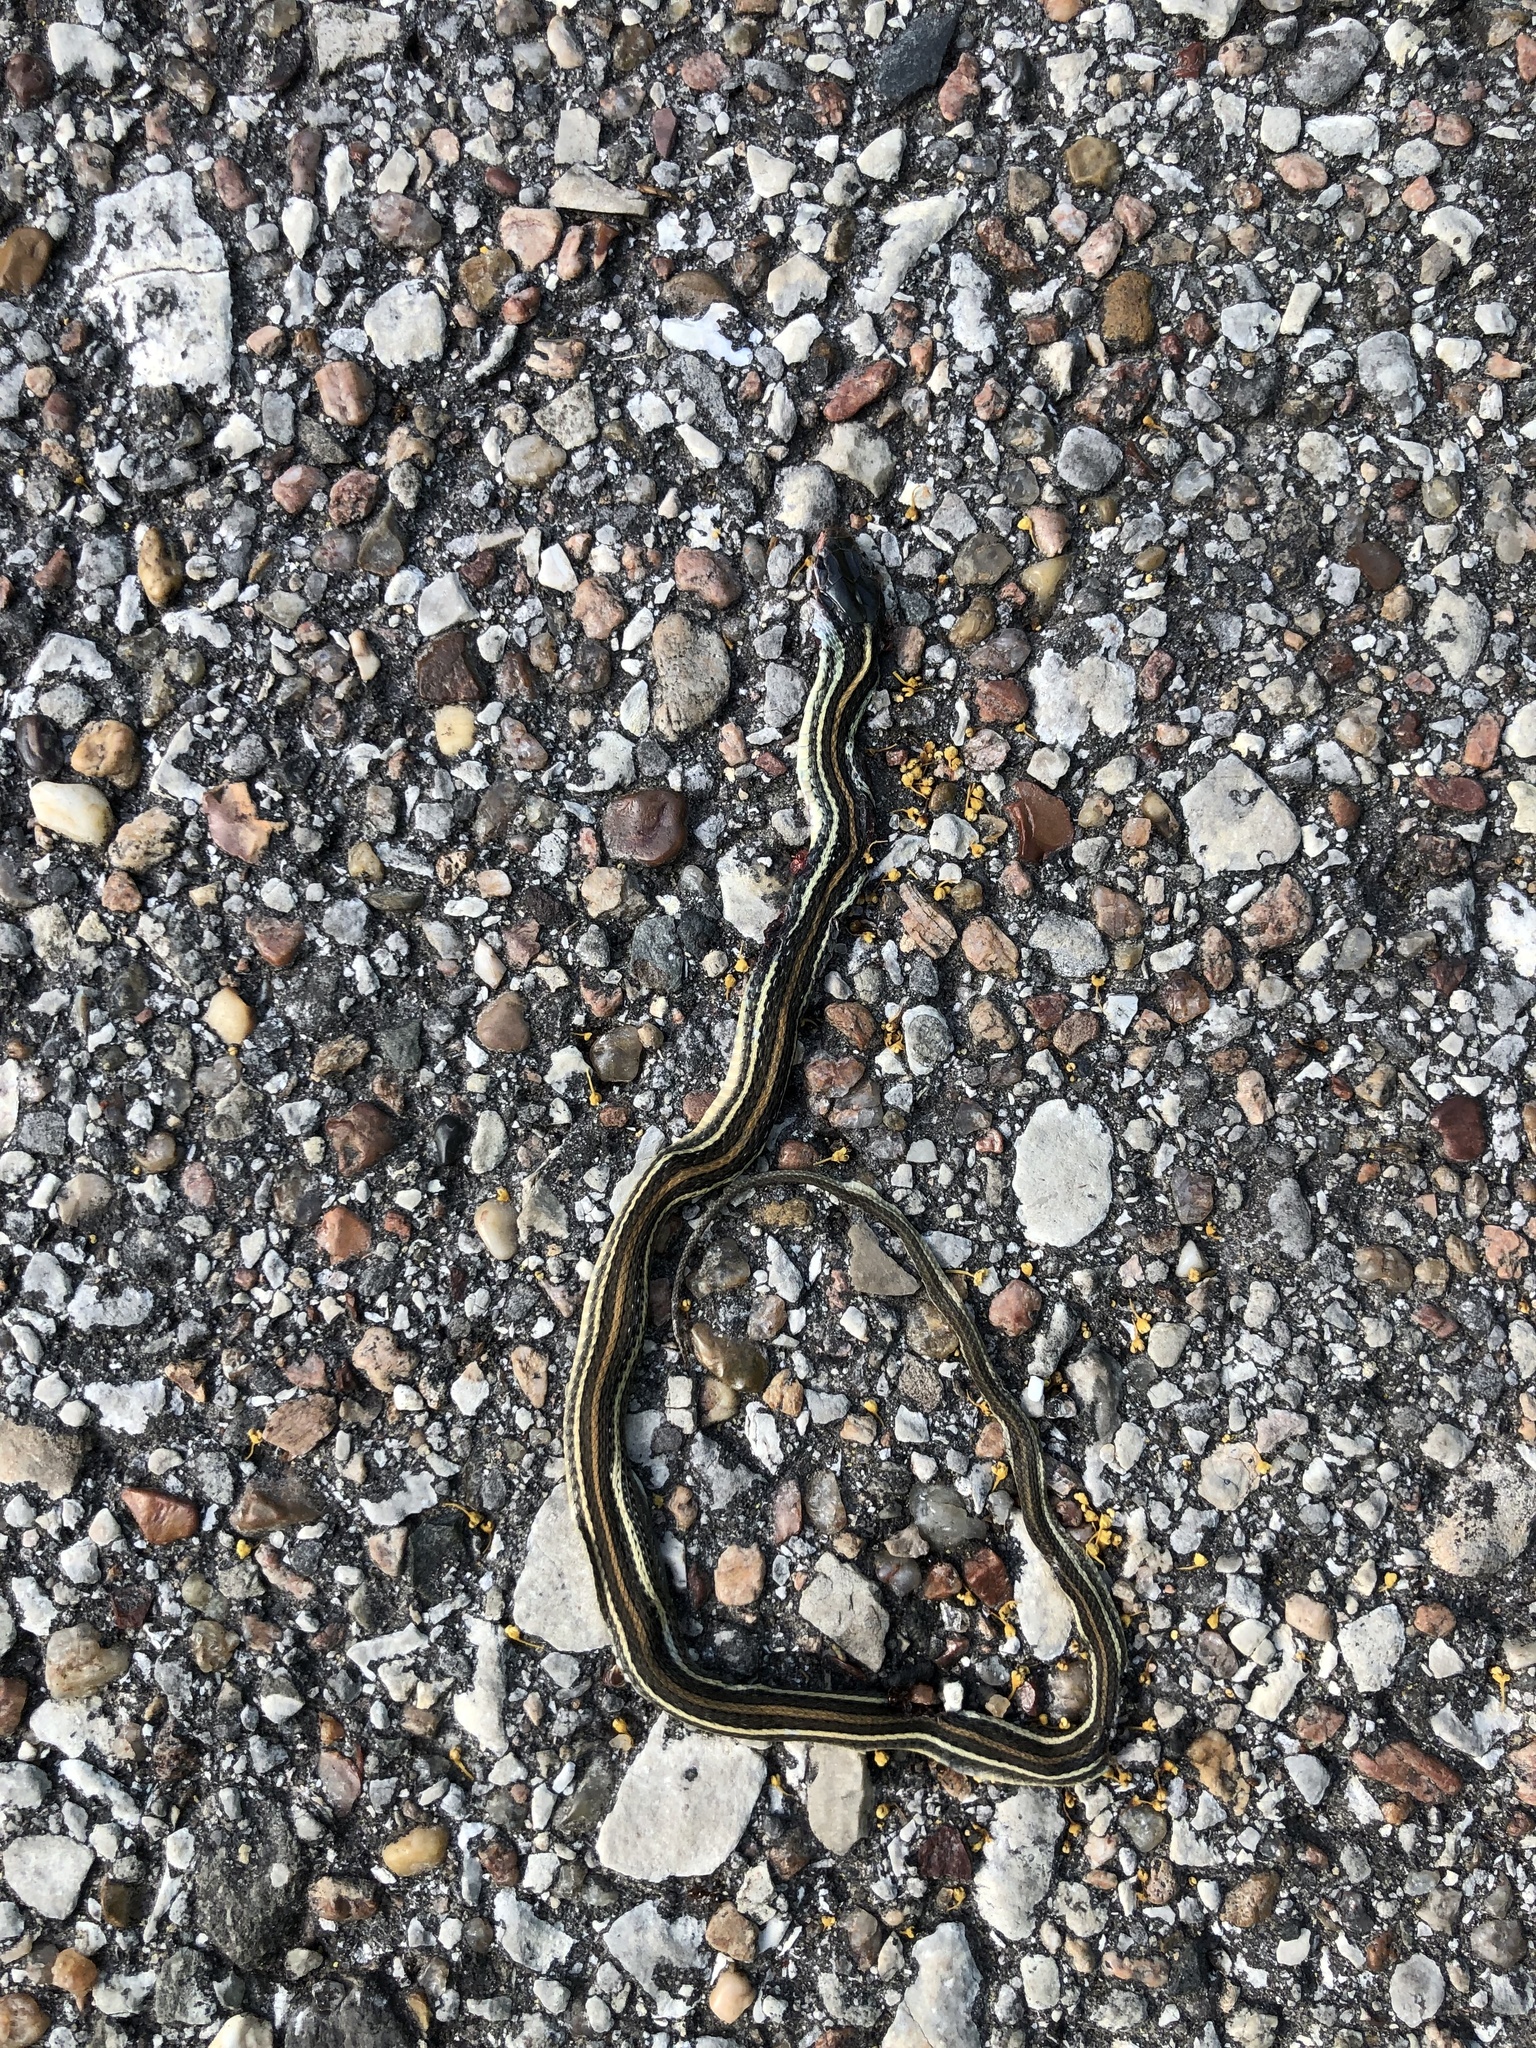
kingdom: Animalia
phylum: Chordata
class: Squamata
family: Colubridae
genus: Thamnophis
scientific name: Thamnophis proximus
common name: Western ribbon snake
